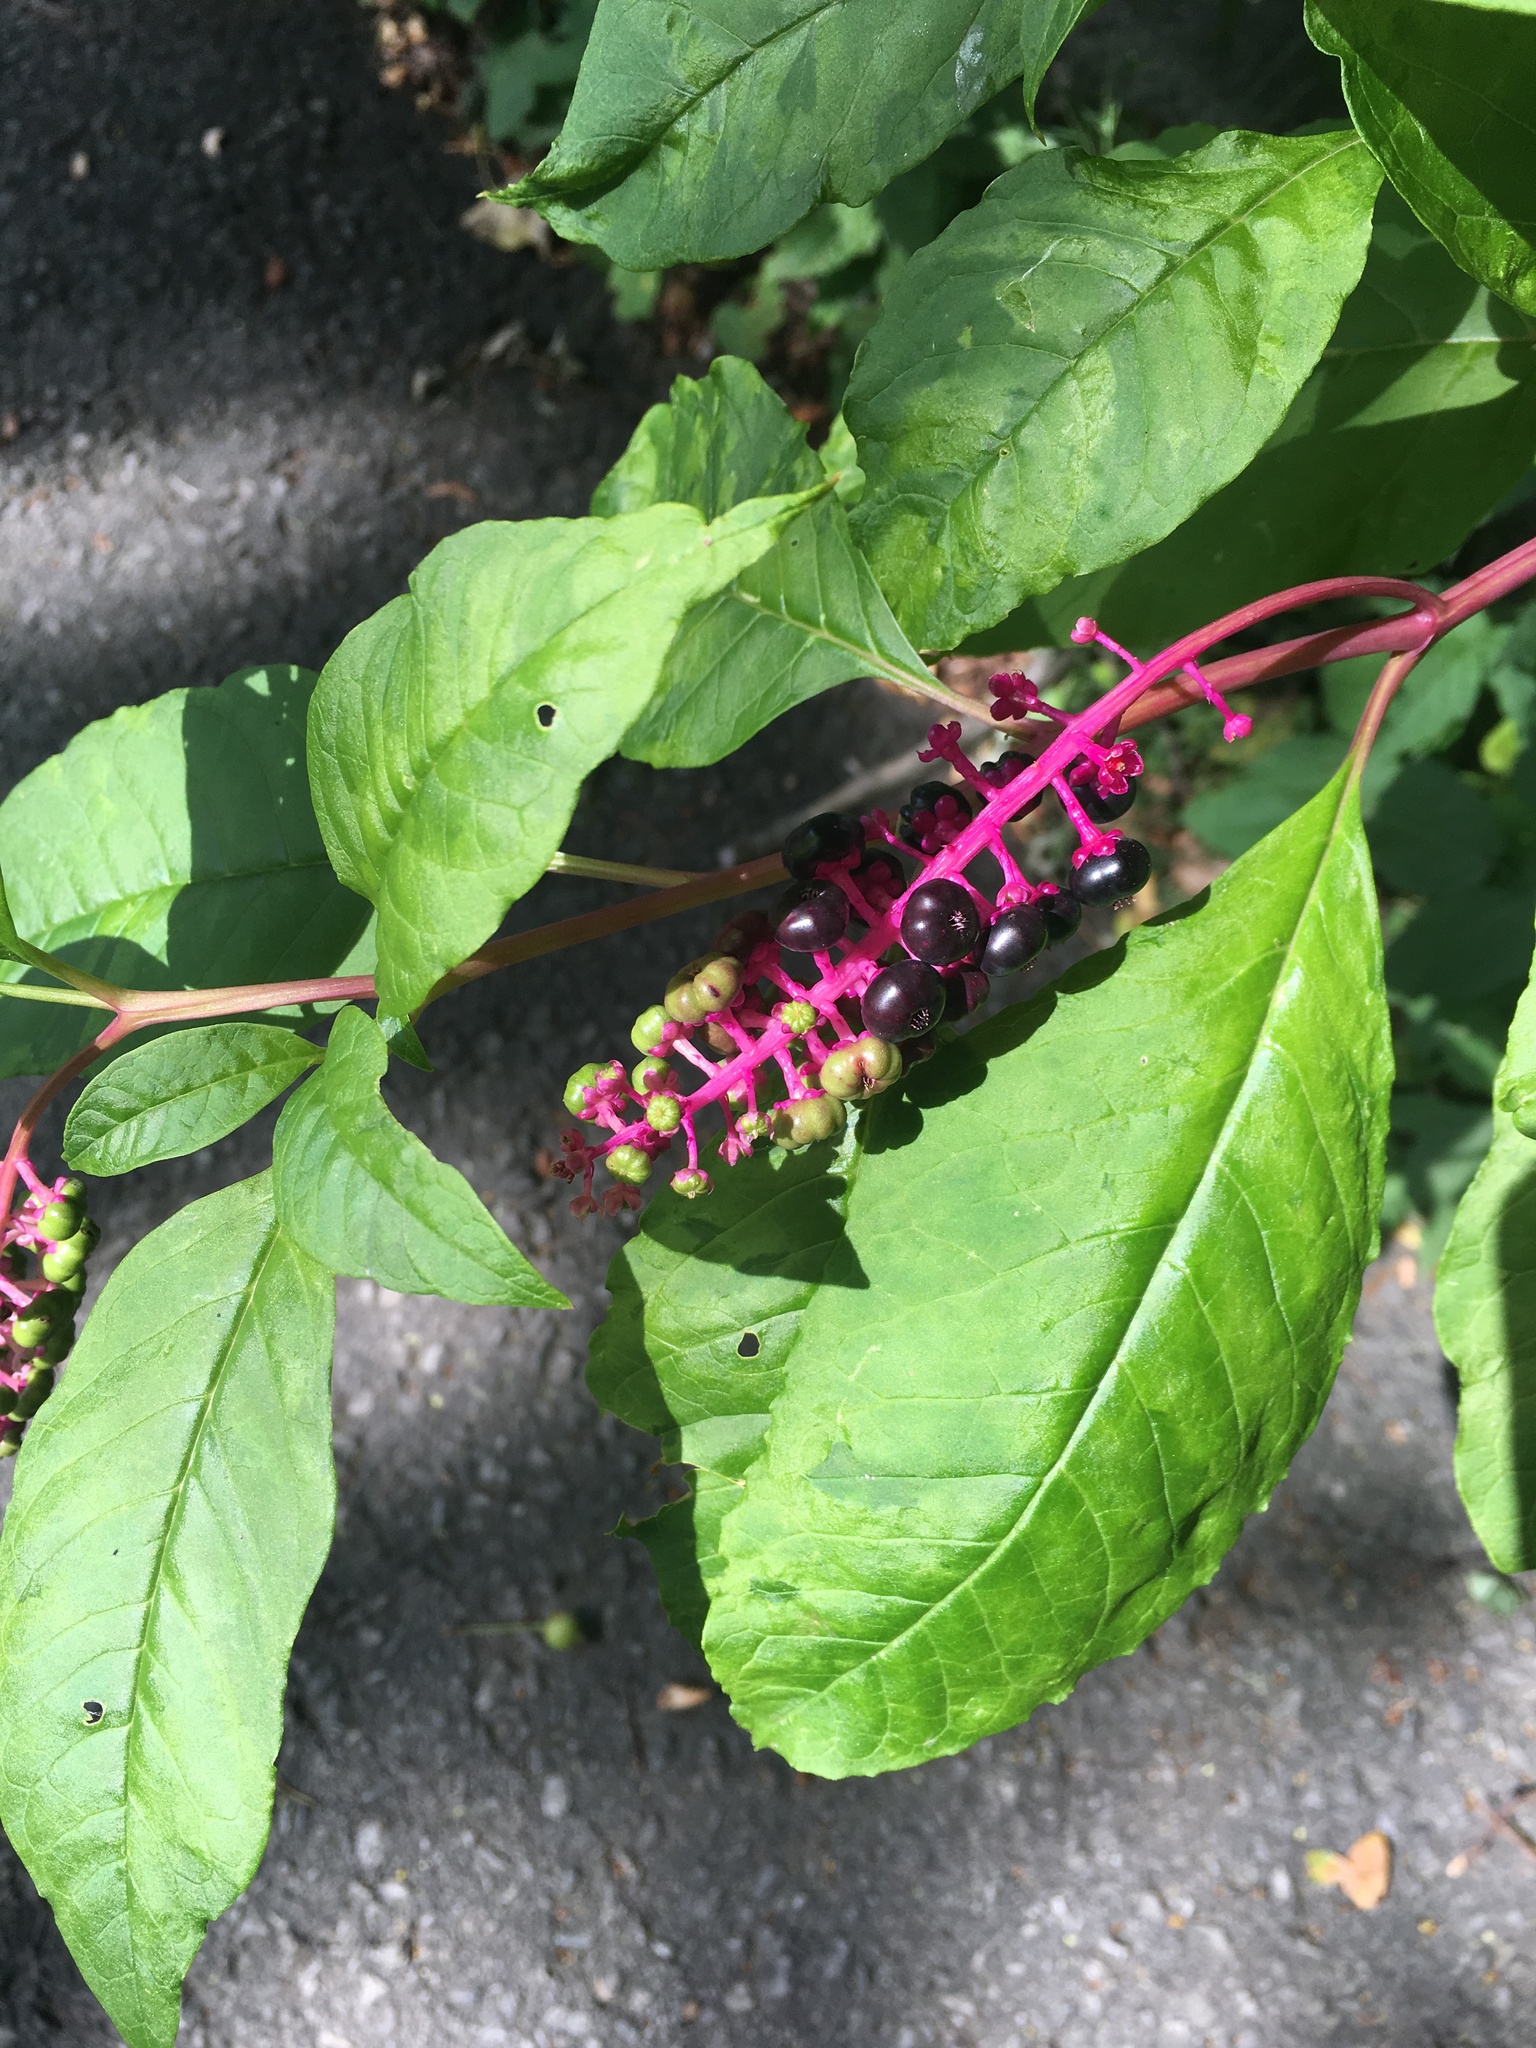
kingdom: Plantae
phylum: Tracheophyta
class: Magnoliopsida
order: Caryophyllales
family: Phytolaccaceae
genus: Phytolacca
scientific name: Phytolacca americana
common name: American pokeweed
